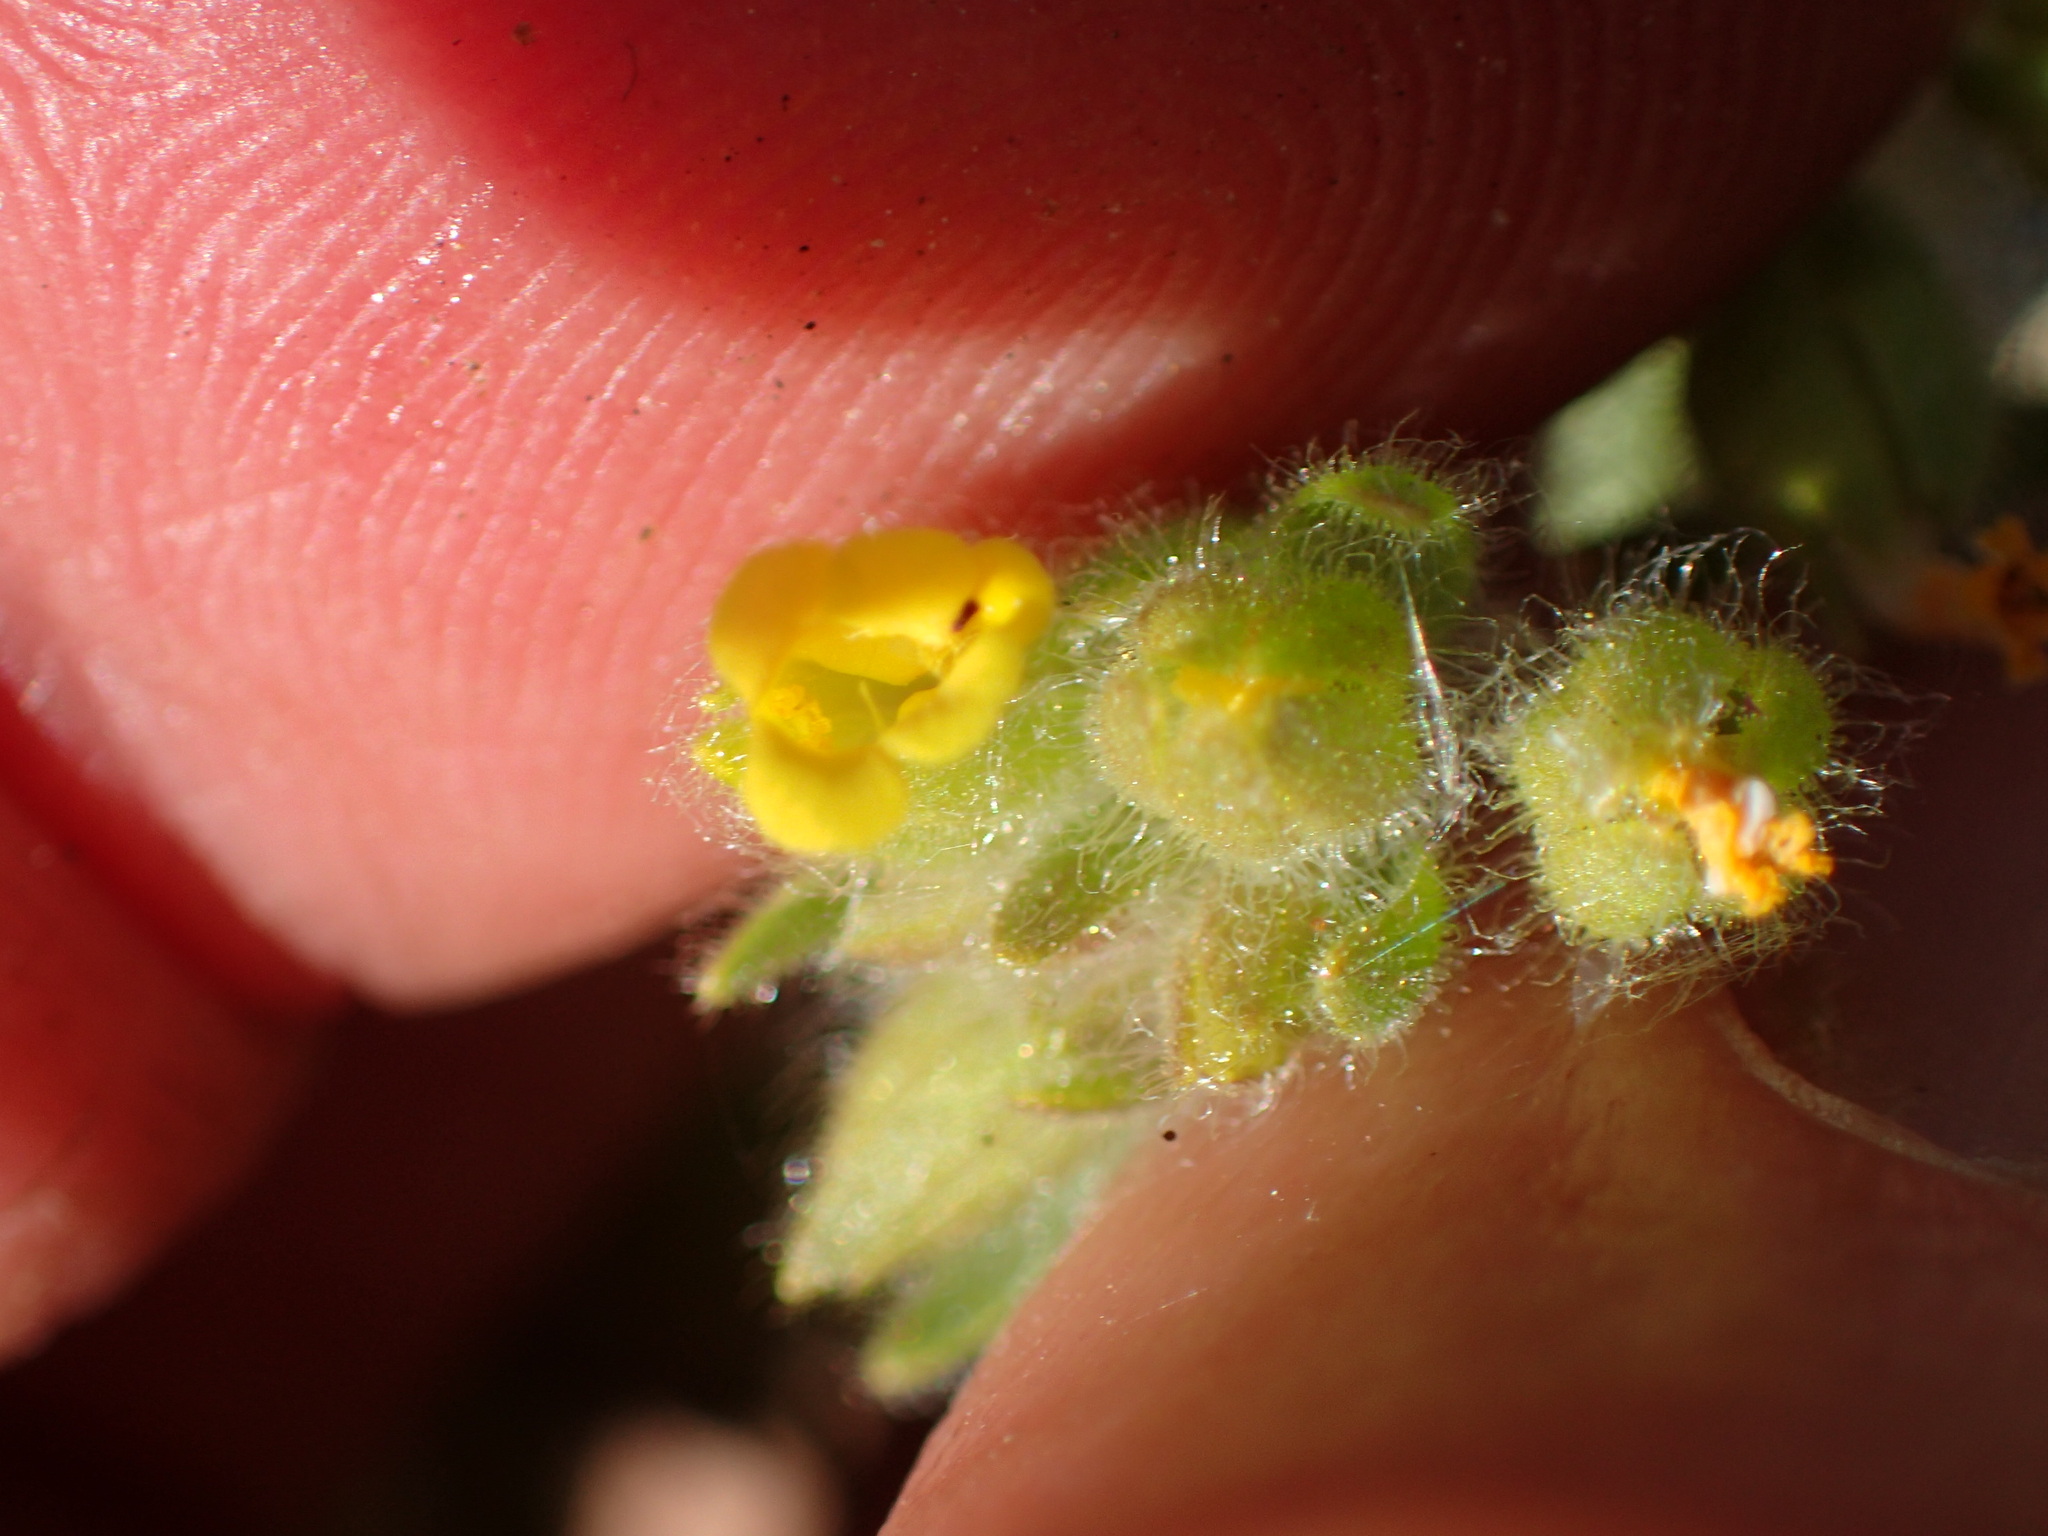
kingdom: Plantae
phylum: Tracheophyta
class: Magnoliopsida
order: Lamiales
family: Phrymaceae
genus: Mimetanthe
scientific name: Mimetanthe pilosa
